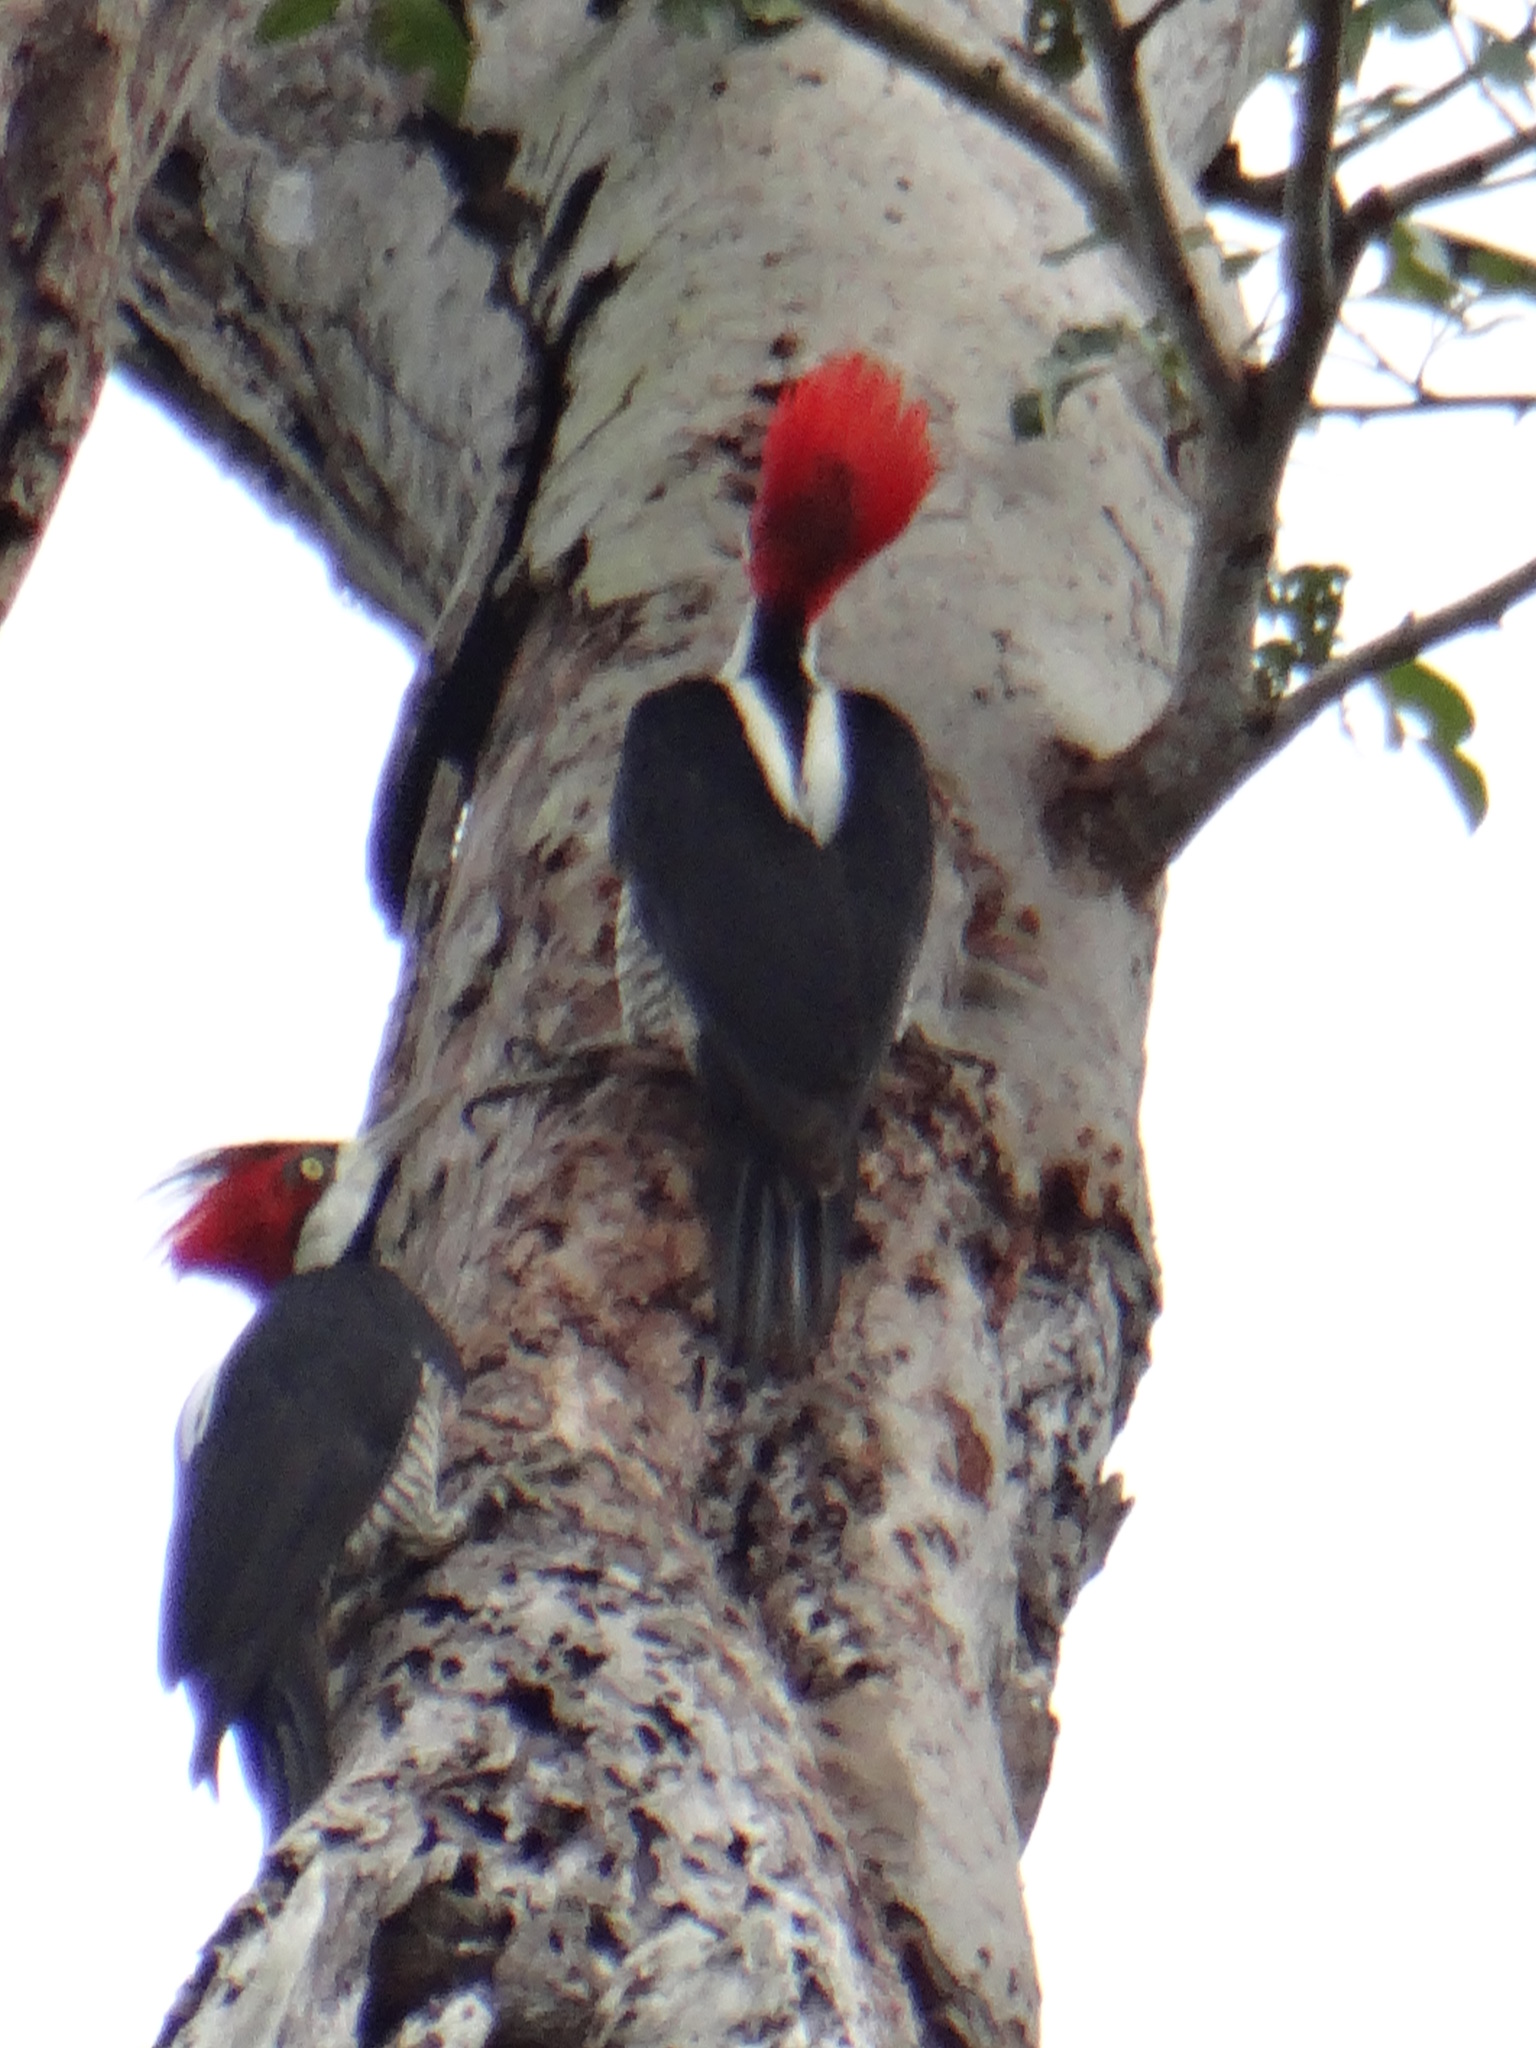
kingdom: Animalia
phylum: Chordata
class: Aves
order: Piciformes
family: Picidae
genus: Campephilus
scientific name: Campephilus melanoleucos
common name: Crimson-crested woodpecker
